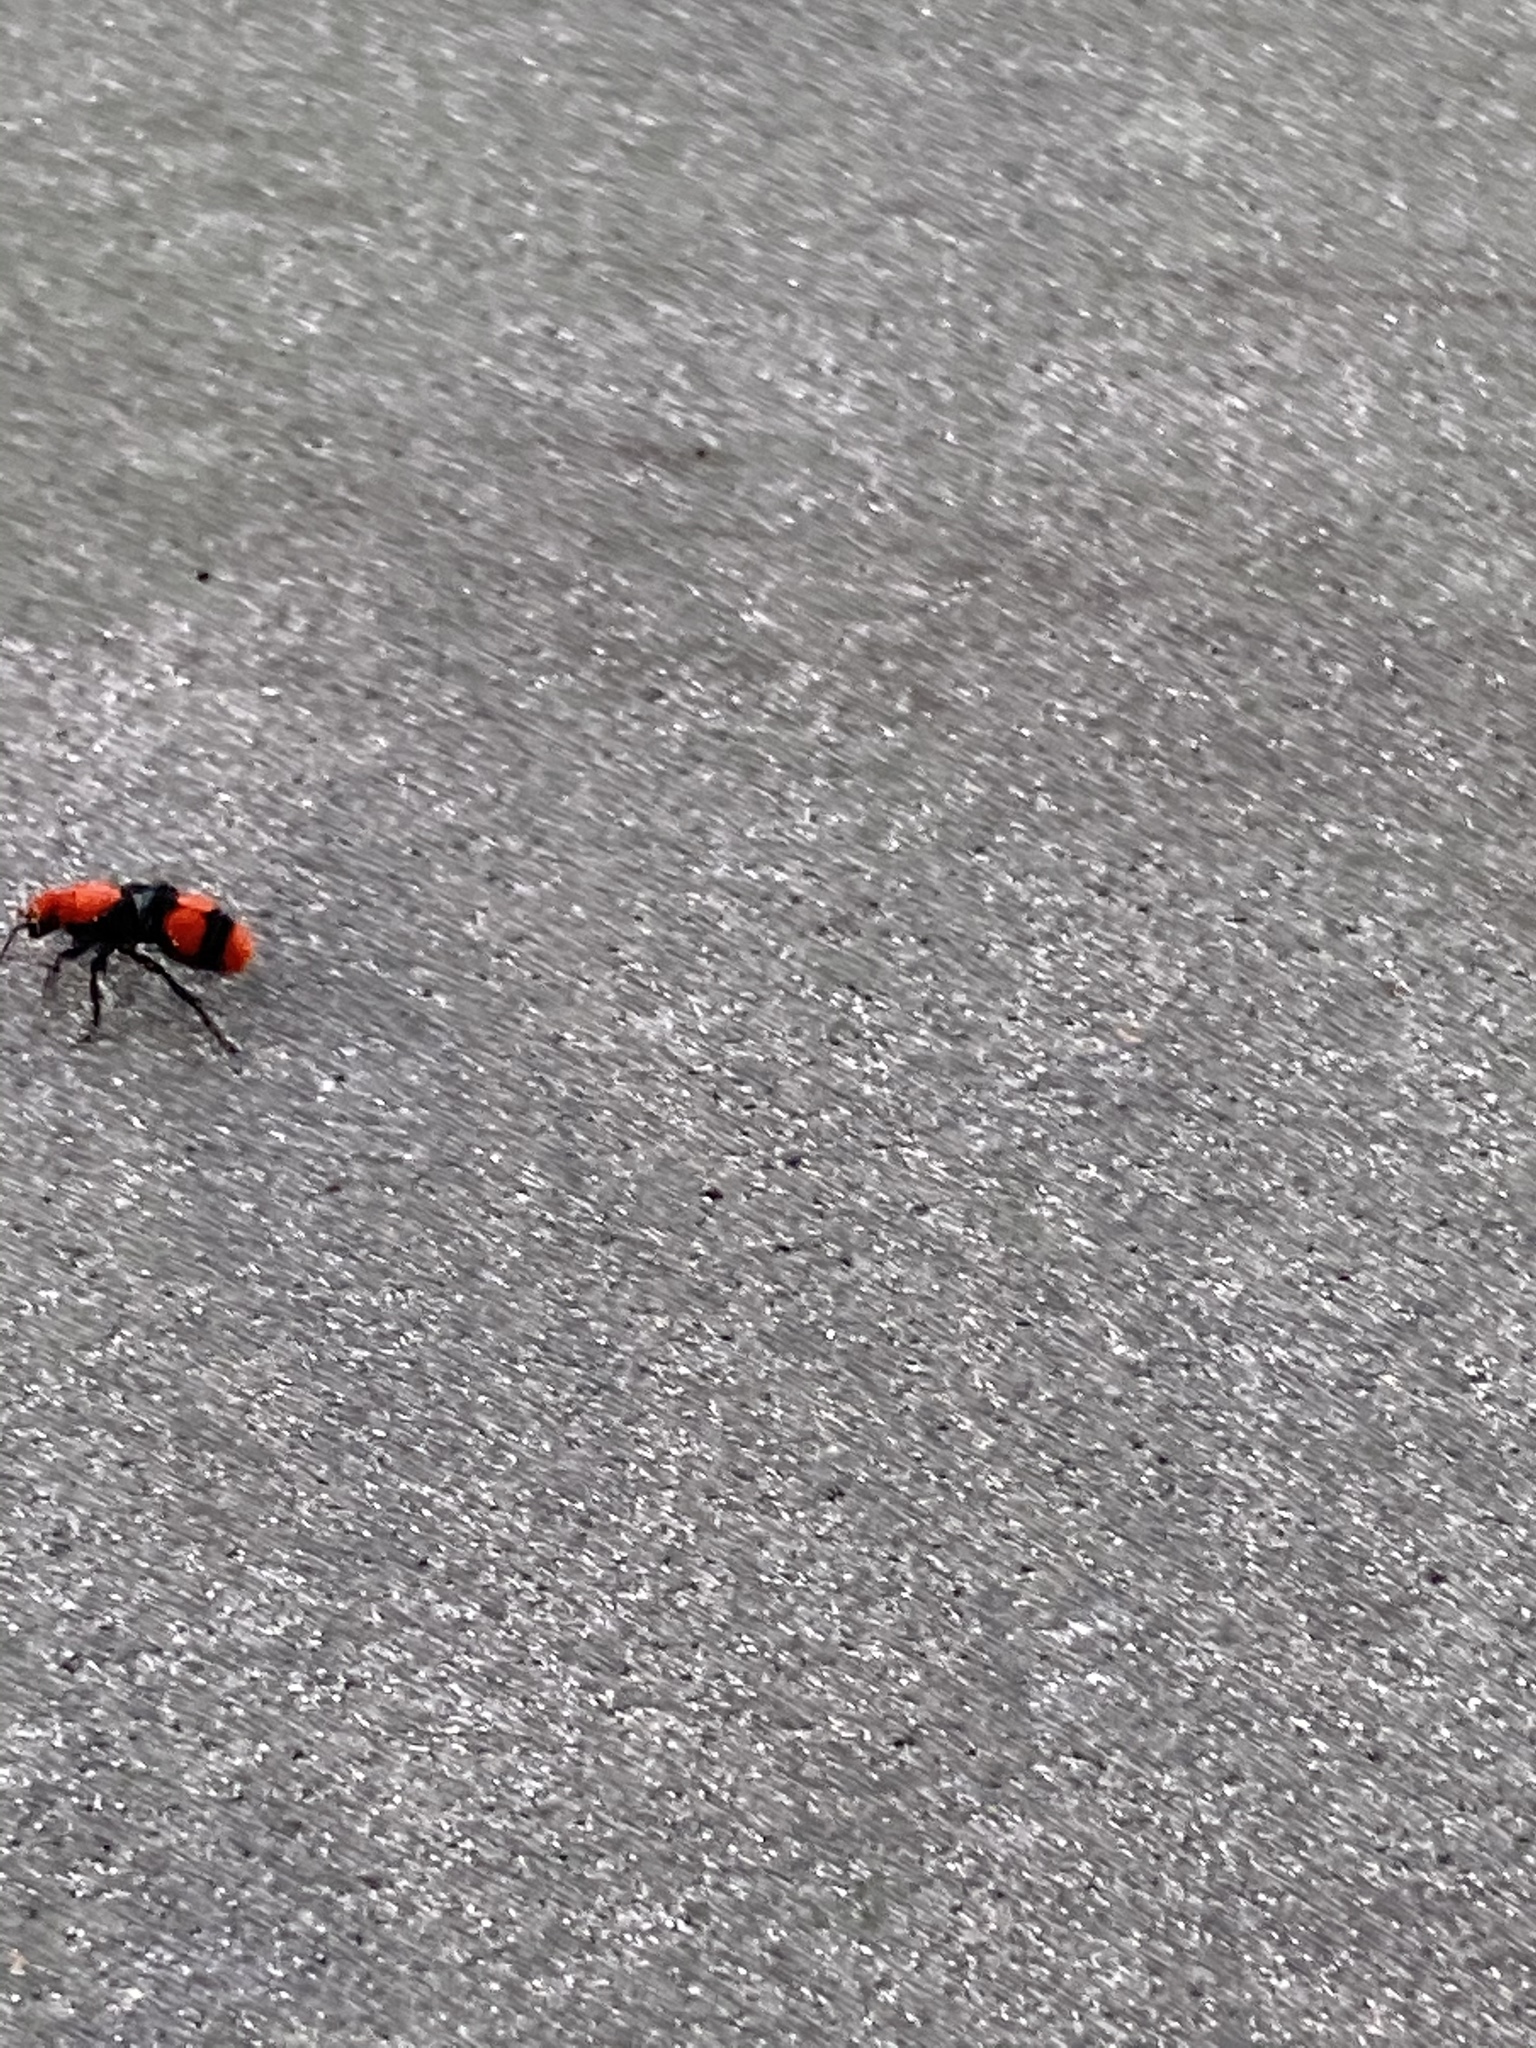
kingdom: Animalia
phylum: Arthropoda
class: Insecta
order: Hymenoptera
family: Mutillidae
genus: Dasymutilla
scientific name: Dasymutilla occidentalis
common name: Common eastern velvet ant
